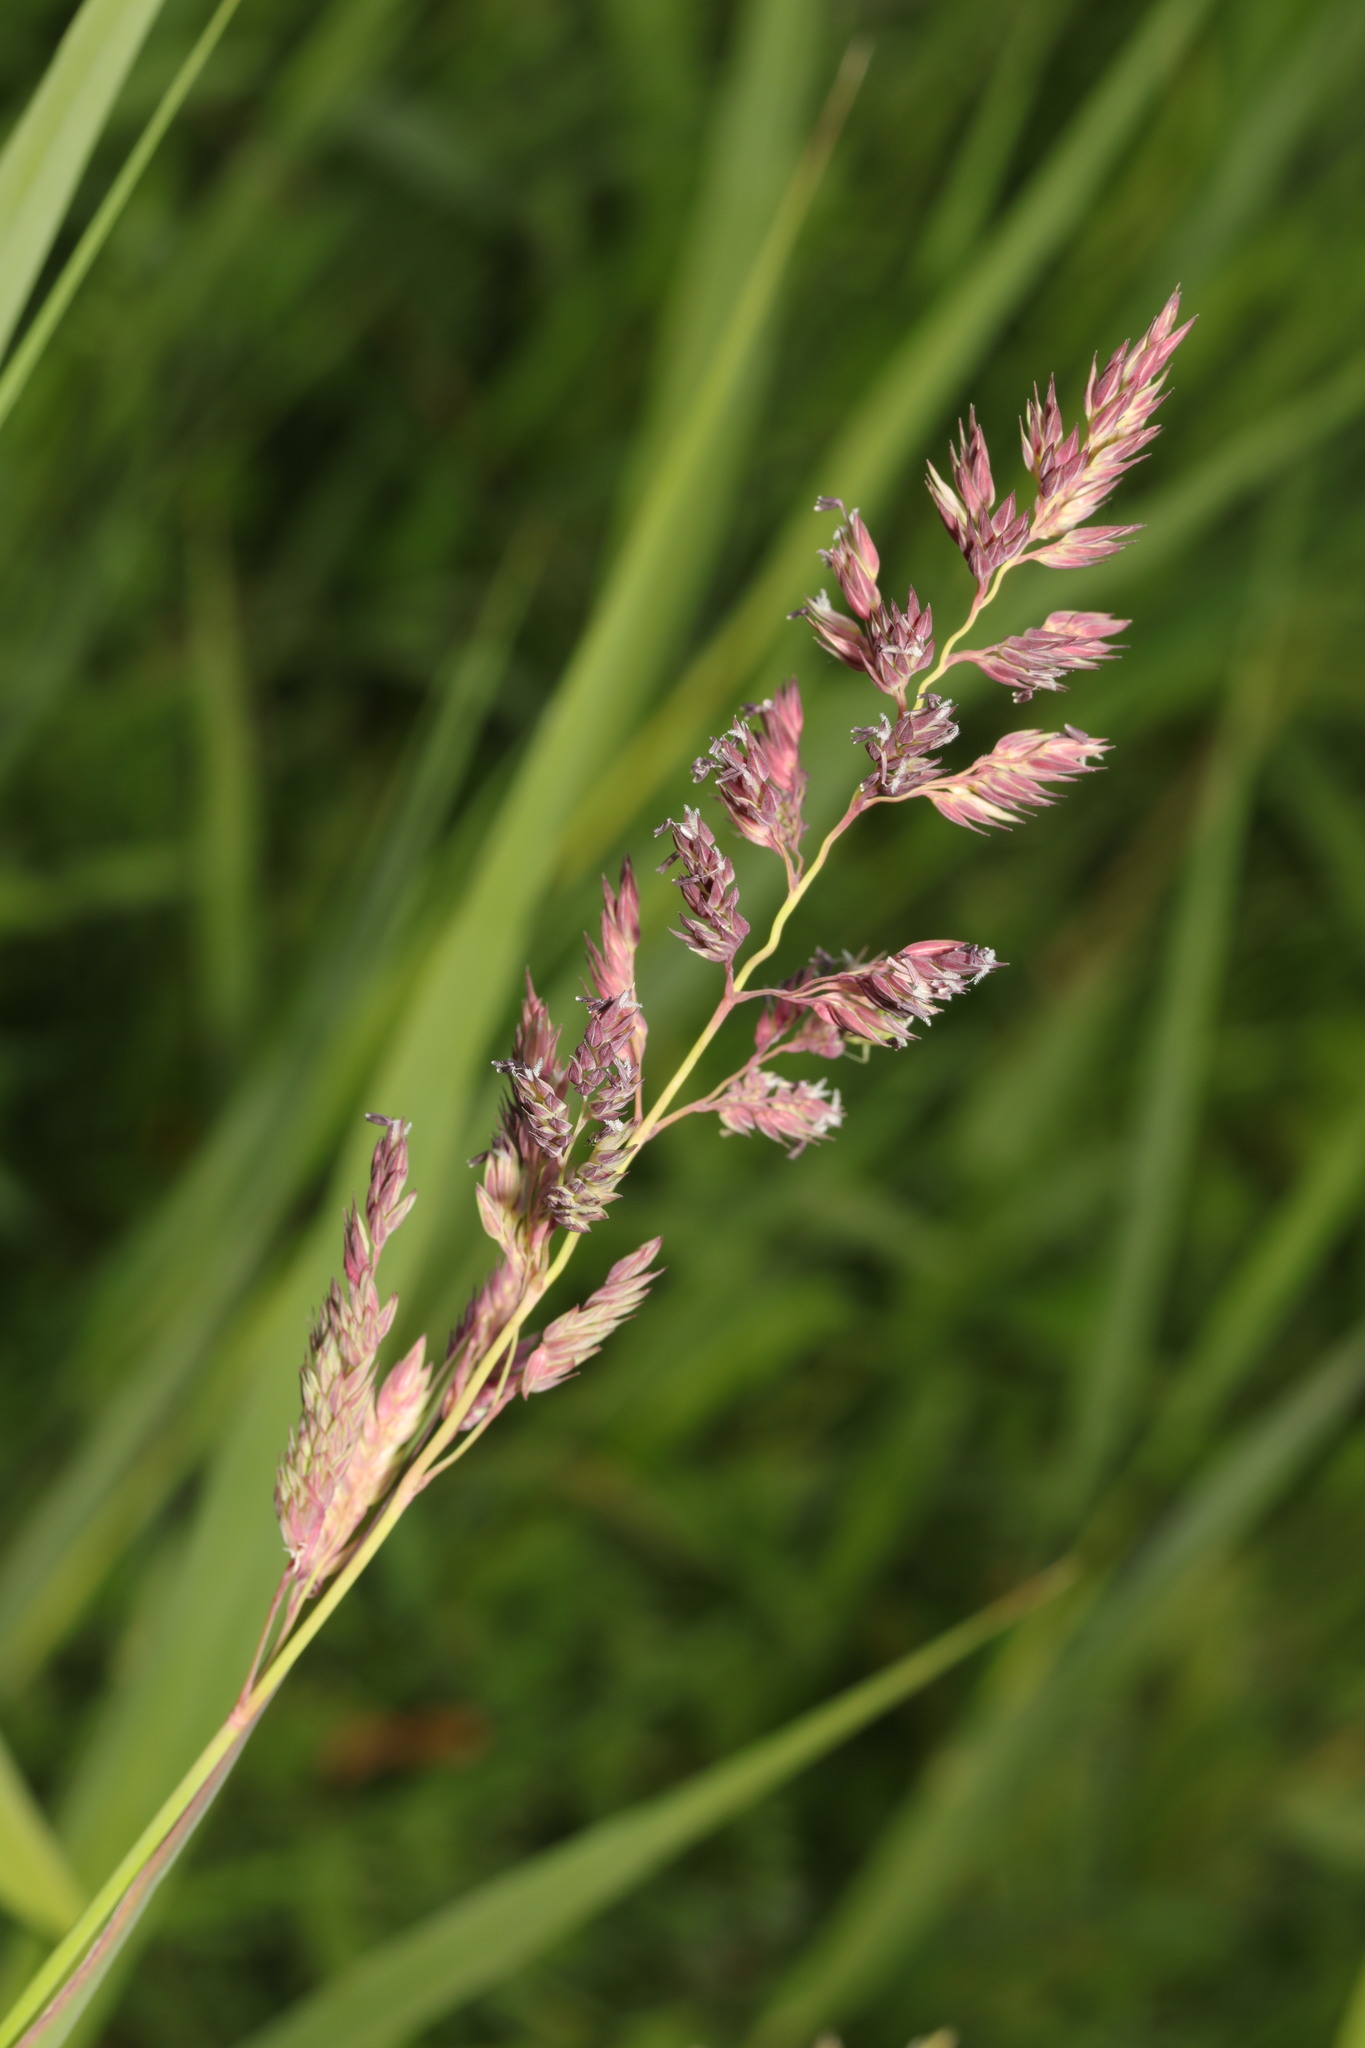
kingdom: Plantae
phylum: Tracheophyta
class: Liliopsida
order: Poales
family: Poaceae
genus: Phalaris
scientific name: Phalaris arundinacea
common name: Reed canary-grass
